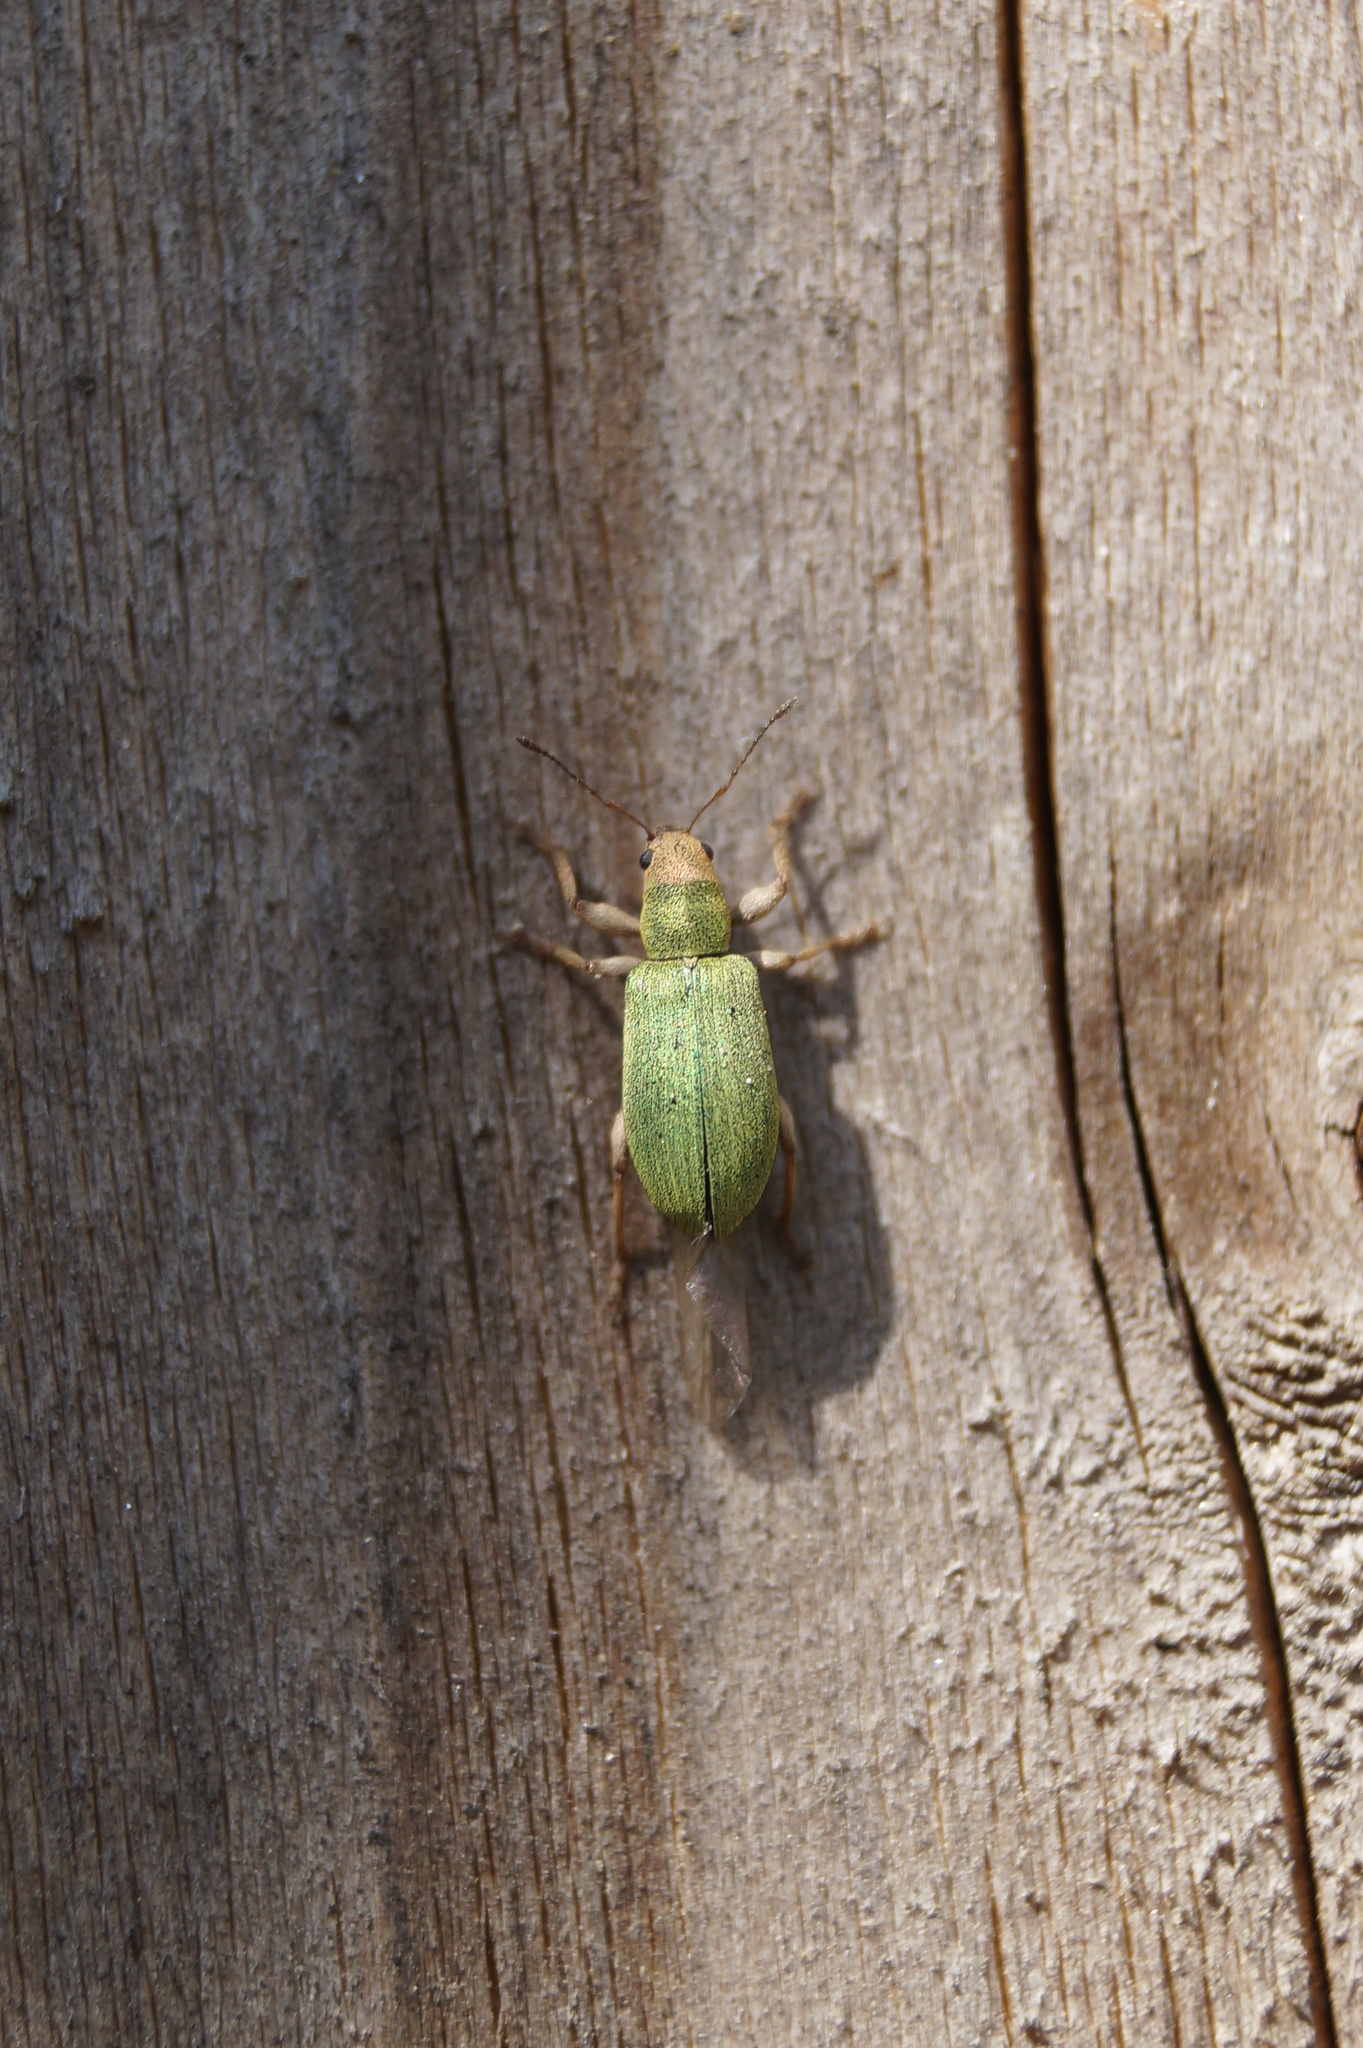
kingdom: Animalia
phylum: Arthropoda
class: Insecta
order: Coleoptera
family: Curculionidae
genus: Pachyrhinus
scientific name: Pachyrhinus lethierryi
